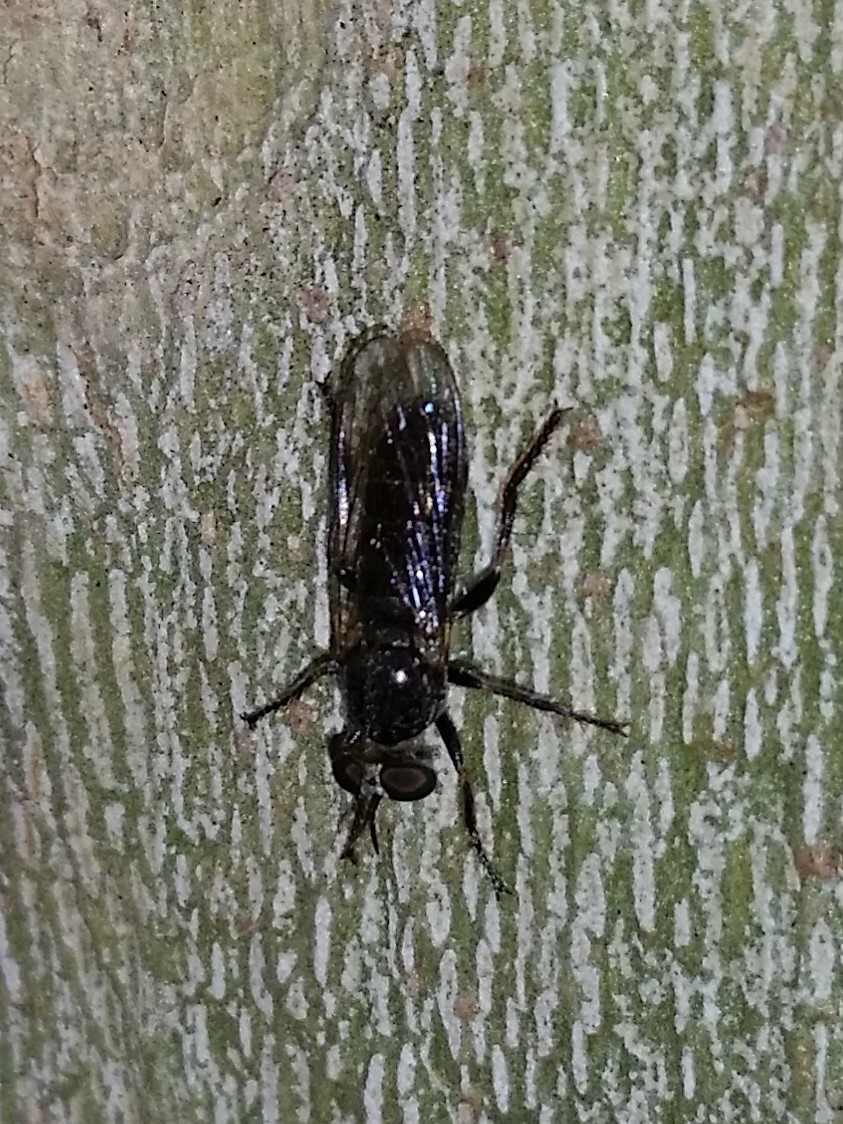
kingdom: Animalia
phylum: Arthropoda
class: Insecta
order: Diptera
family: Asilidae
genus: Atomosia
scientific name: Atomosia puella
